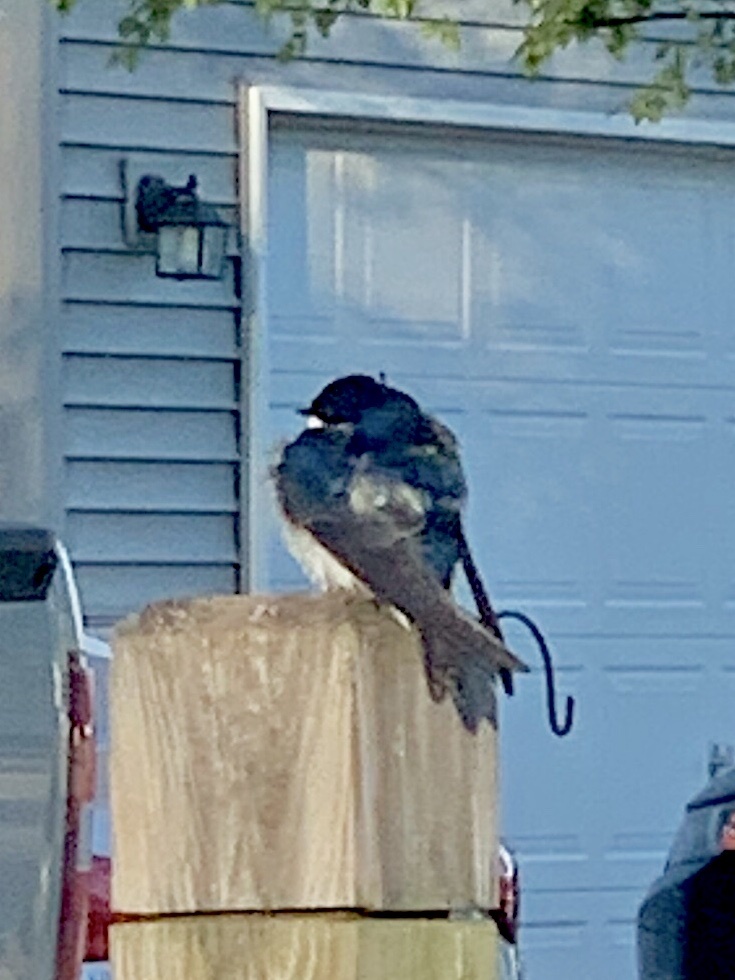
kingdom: Animalia
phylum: Chordata
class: Aves
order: Passeriformes
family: Hirundinidae
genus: Tachycineta
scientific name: Tachycineta bicolor
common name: Tree swallow
